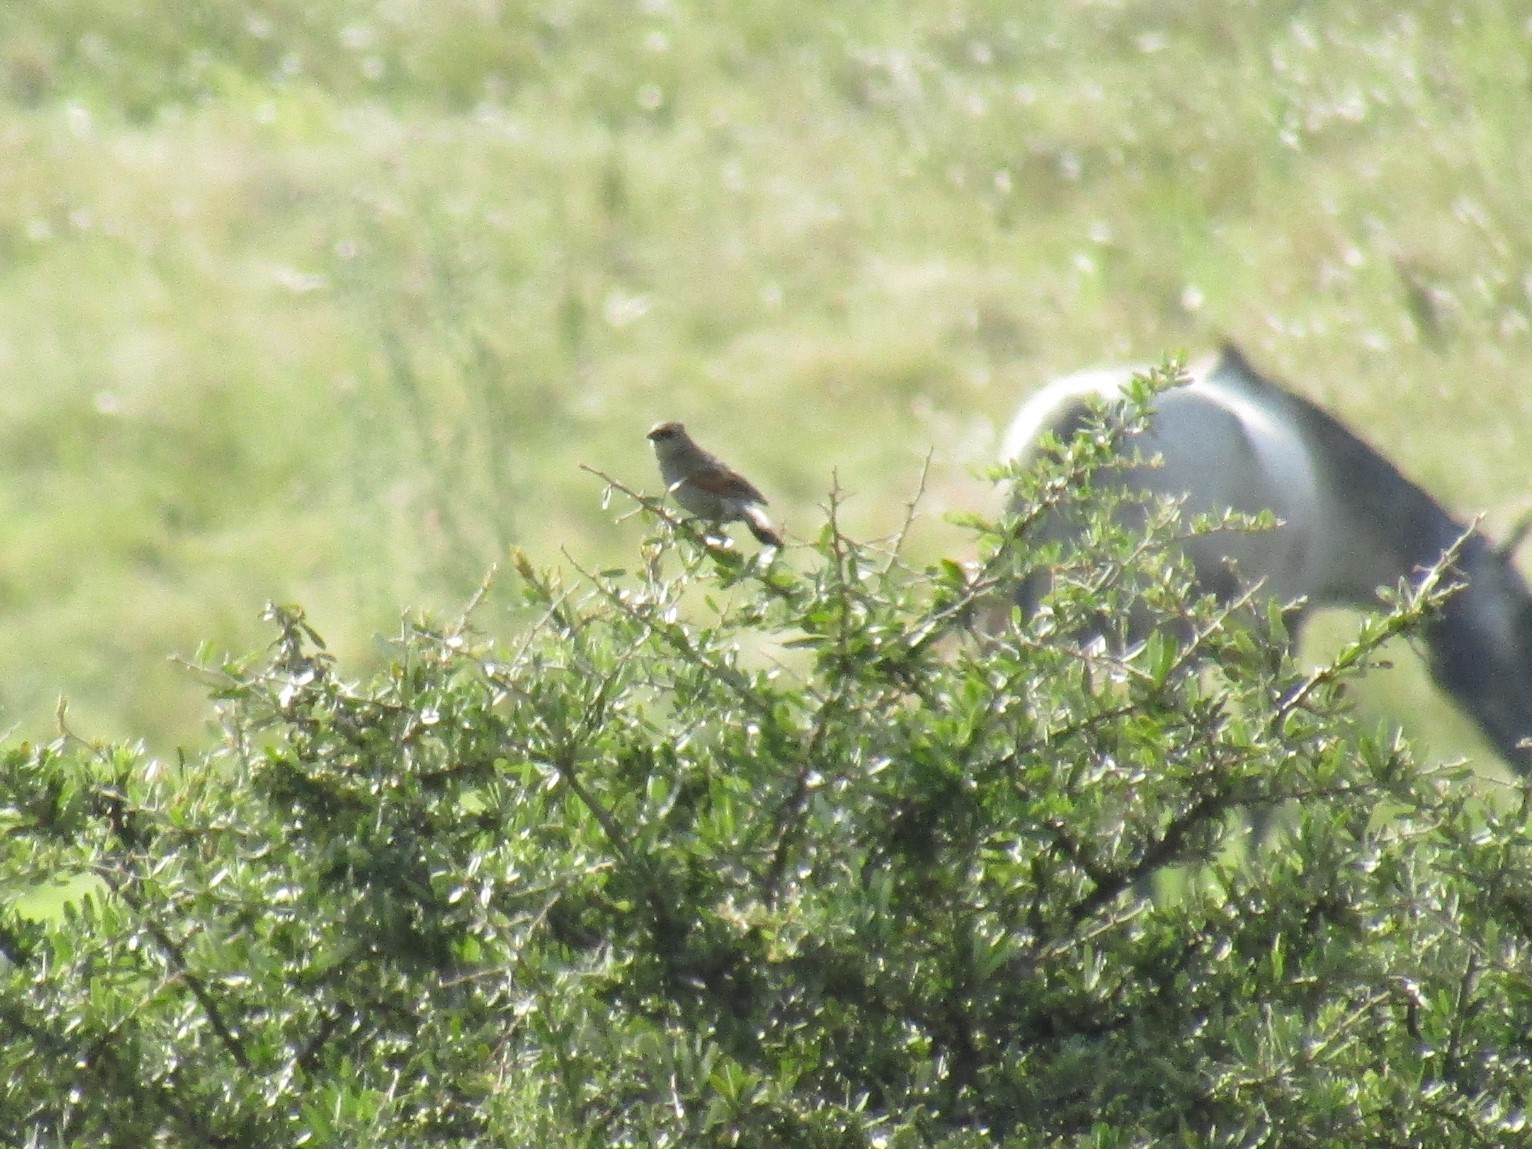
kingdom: Animalia
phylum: Chordata
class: Aves
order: Passeriformes
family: Icteridae
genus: Agelaioides
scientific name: Agelaioides badius
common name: Baywing
